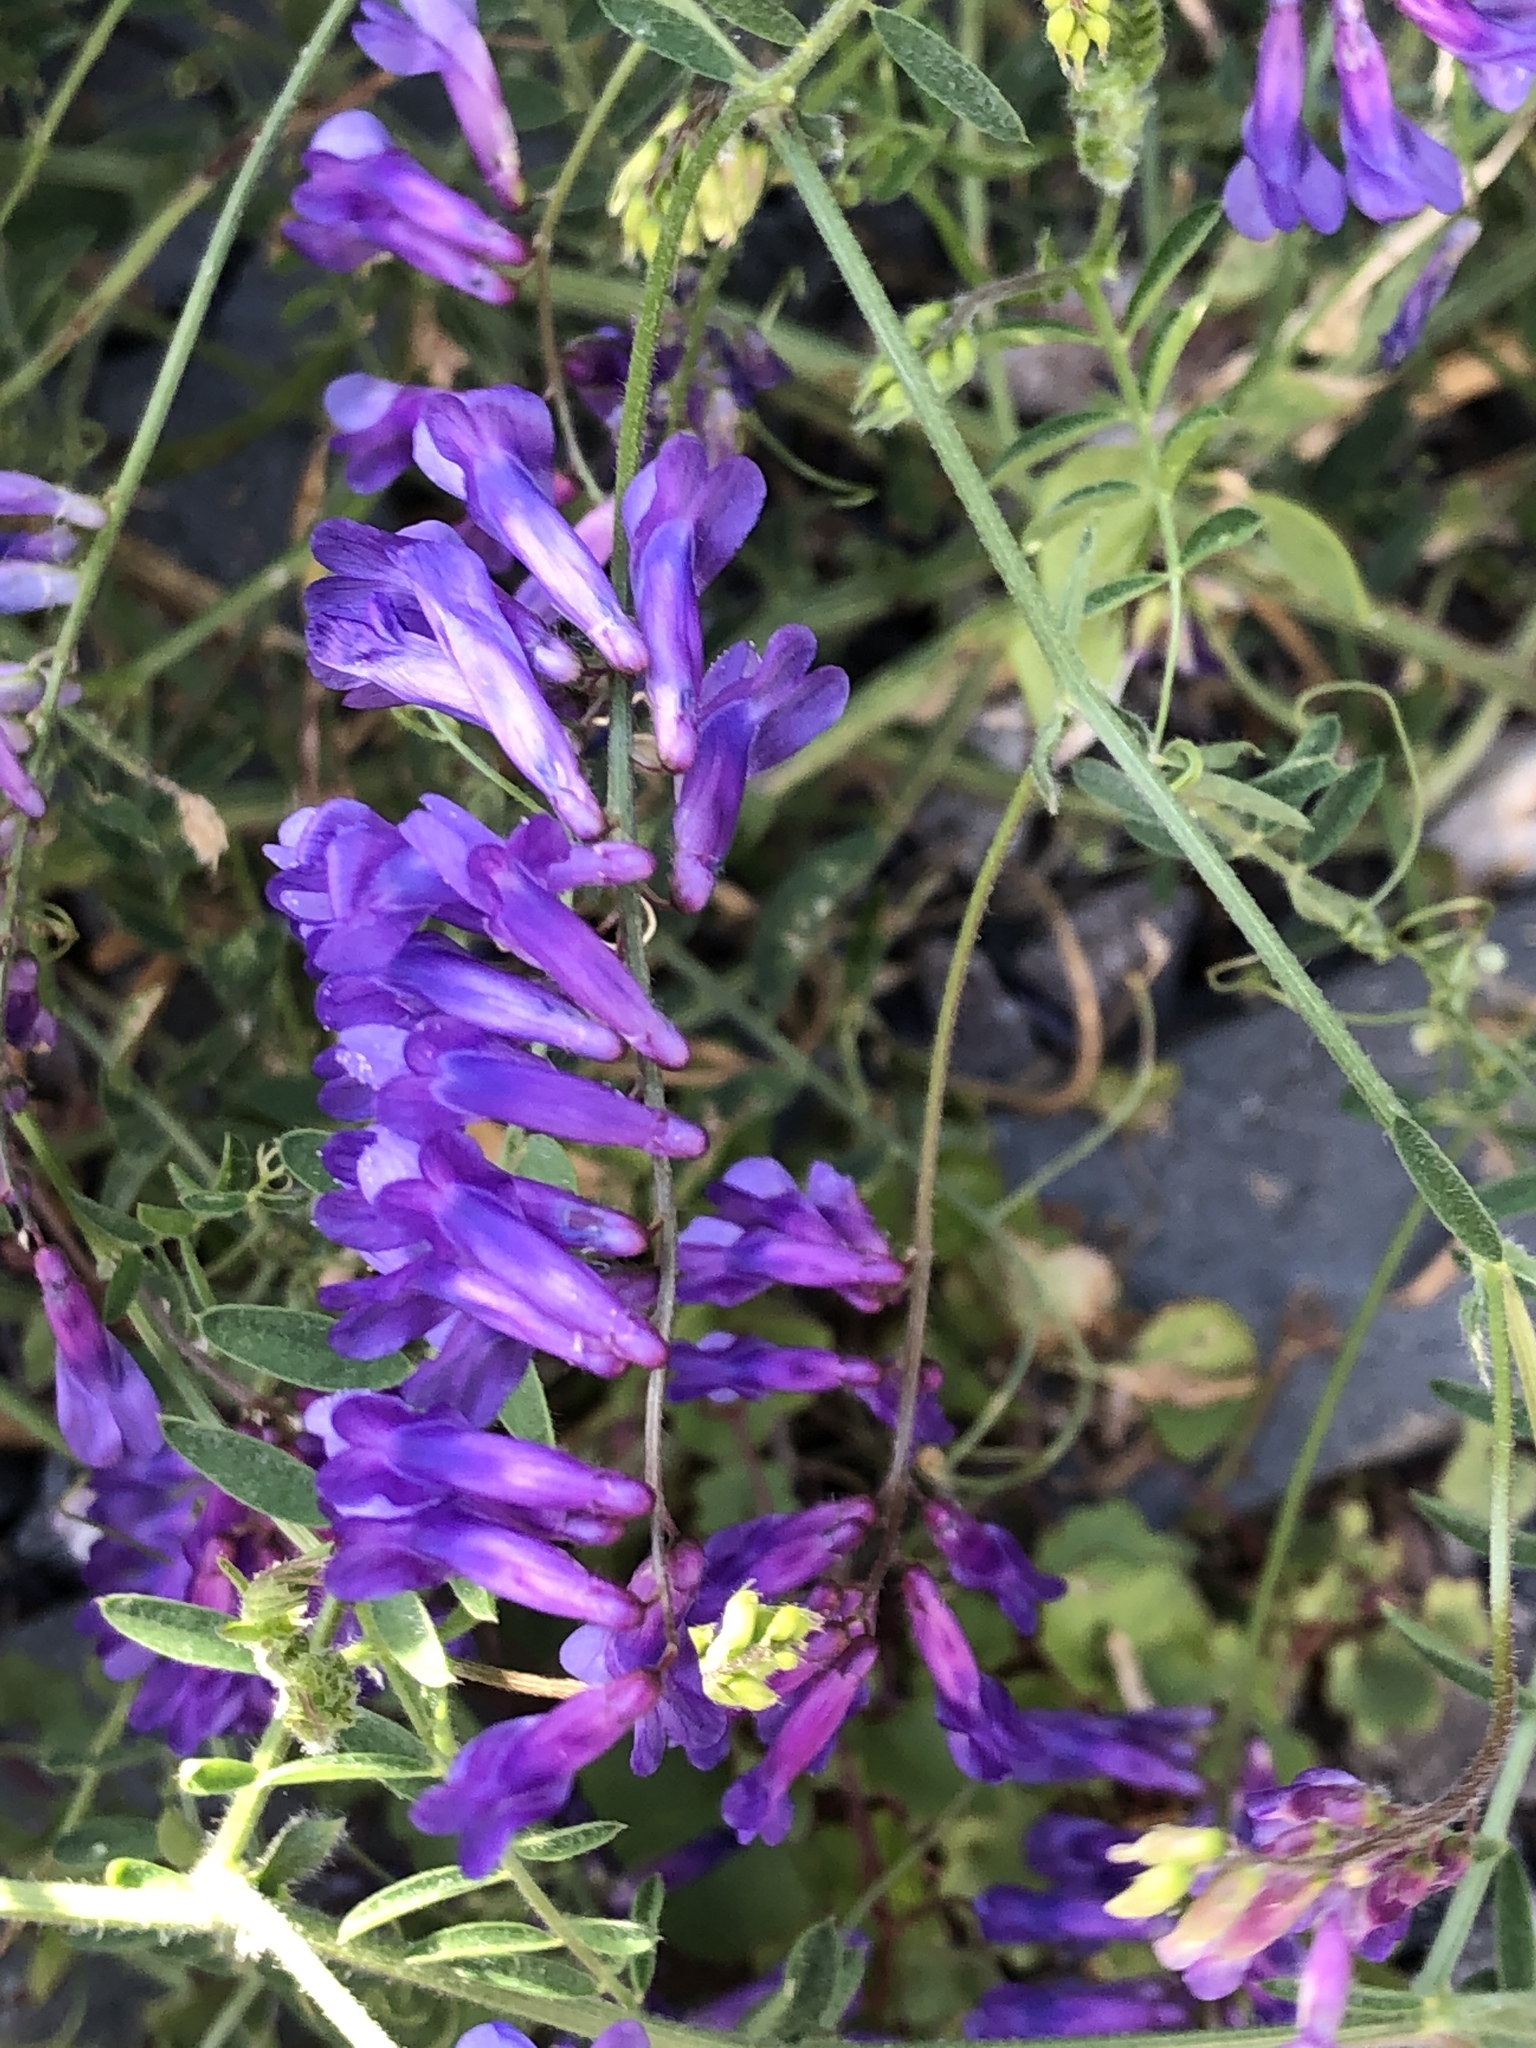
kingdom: Plantae
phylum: Tracheophyta
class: Magnoliopsida
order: Fabales
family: Fabaceae
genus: Vicia
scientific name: Vicia villosa
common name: Fodder vetch
